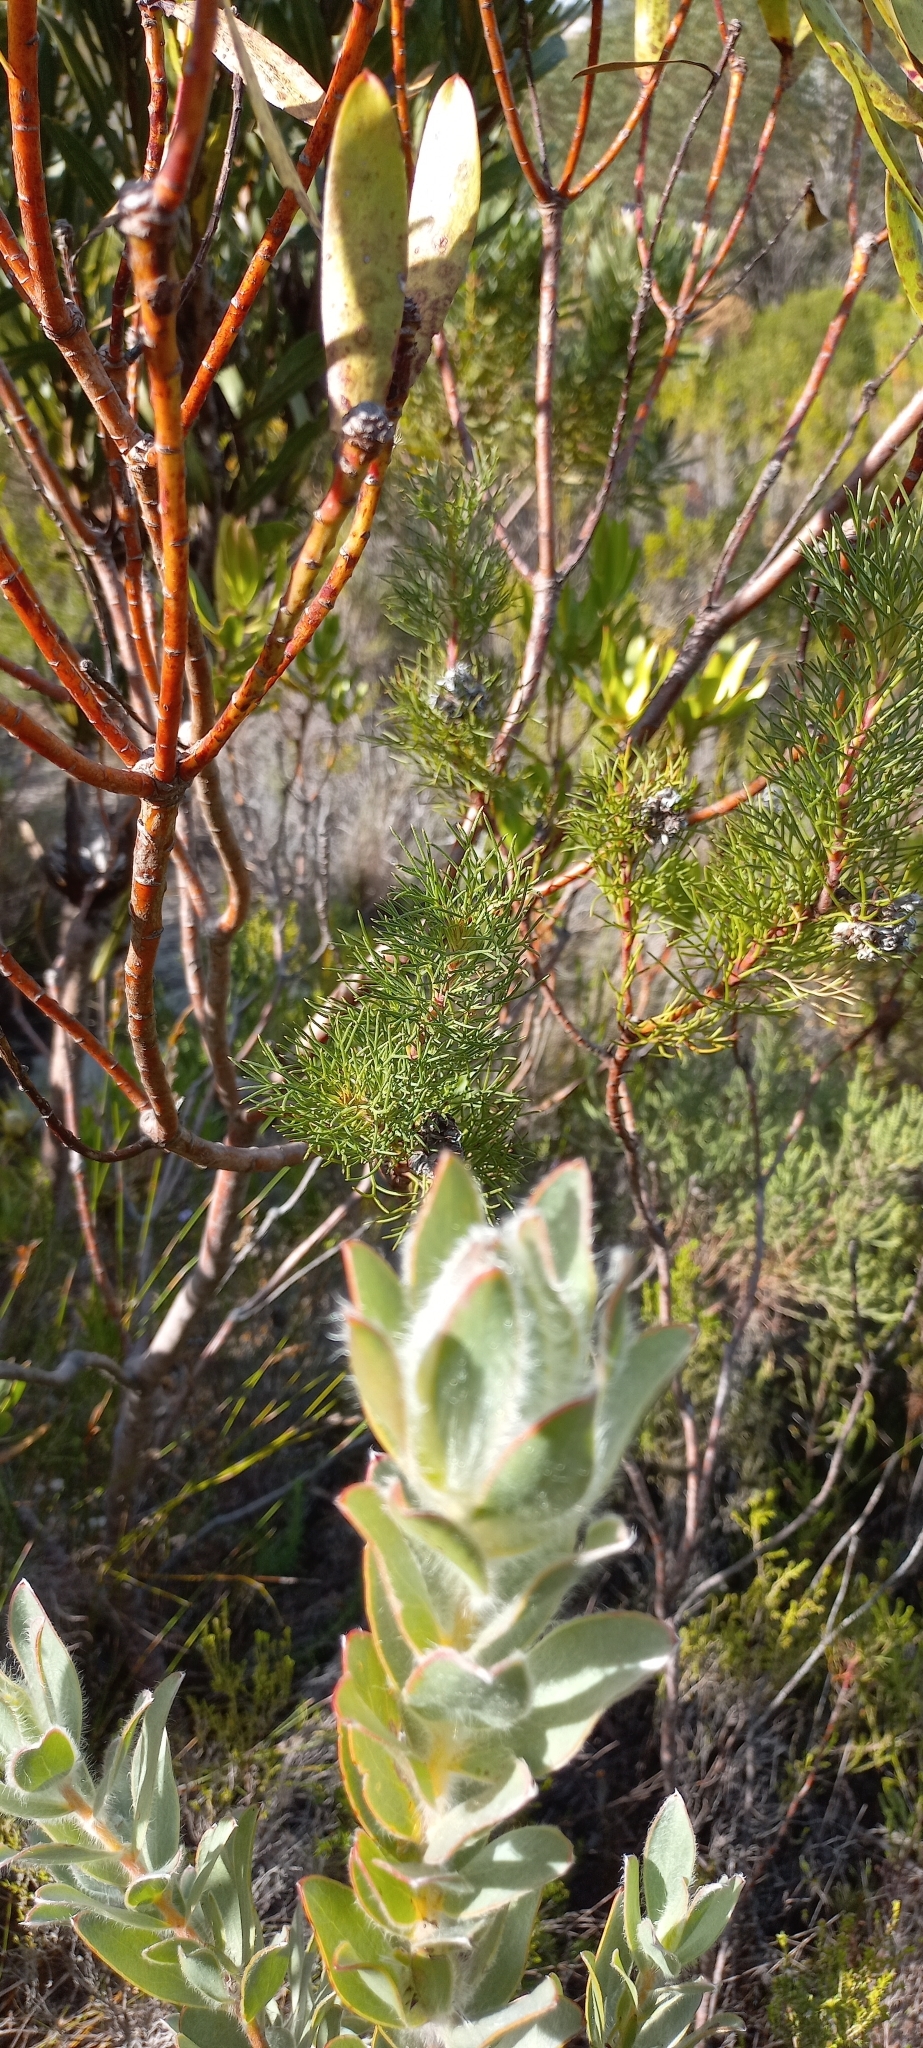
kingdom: Plantae
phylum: Tracheophyta
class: Magnoliopsida
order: Proteales
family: Proteaceae
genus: Leucadendron
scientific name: Leucadendron nervosum
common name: Silky-ruff conebush
